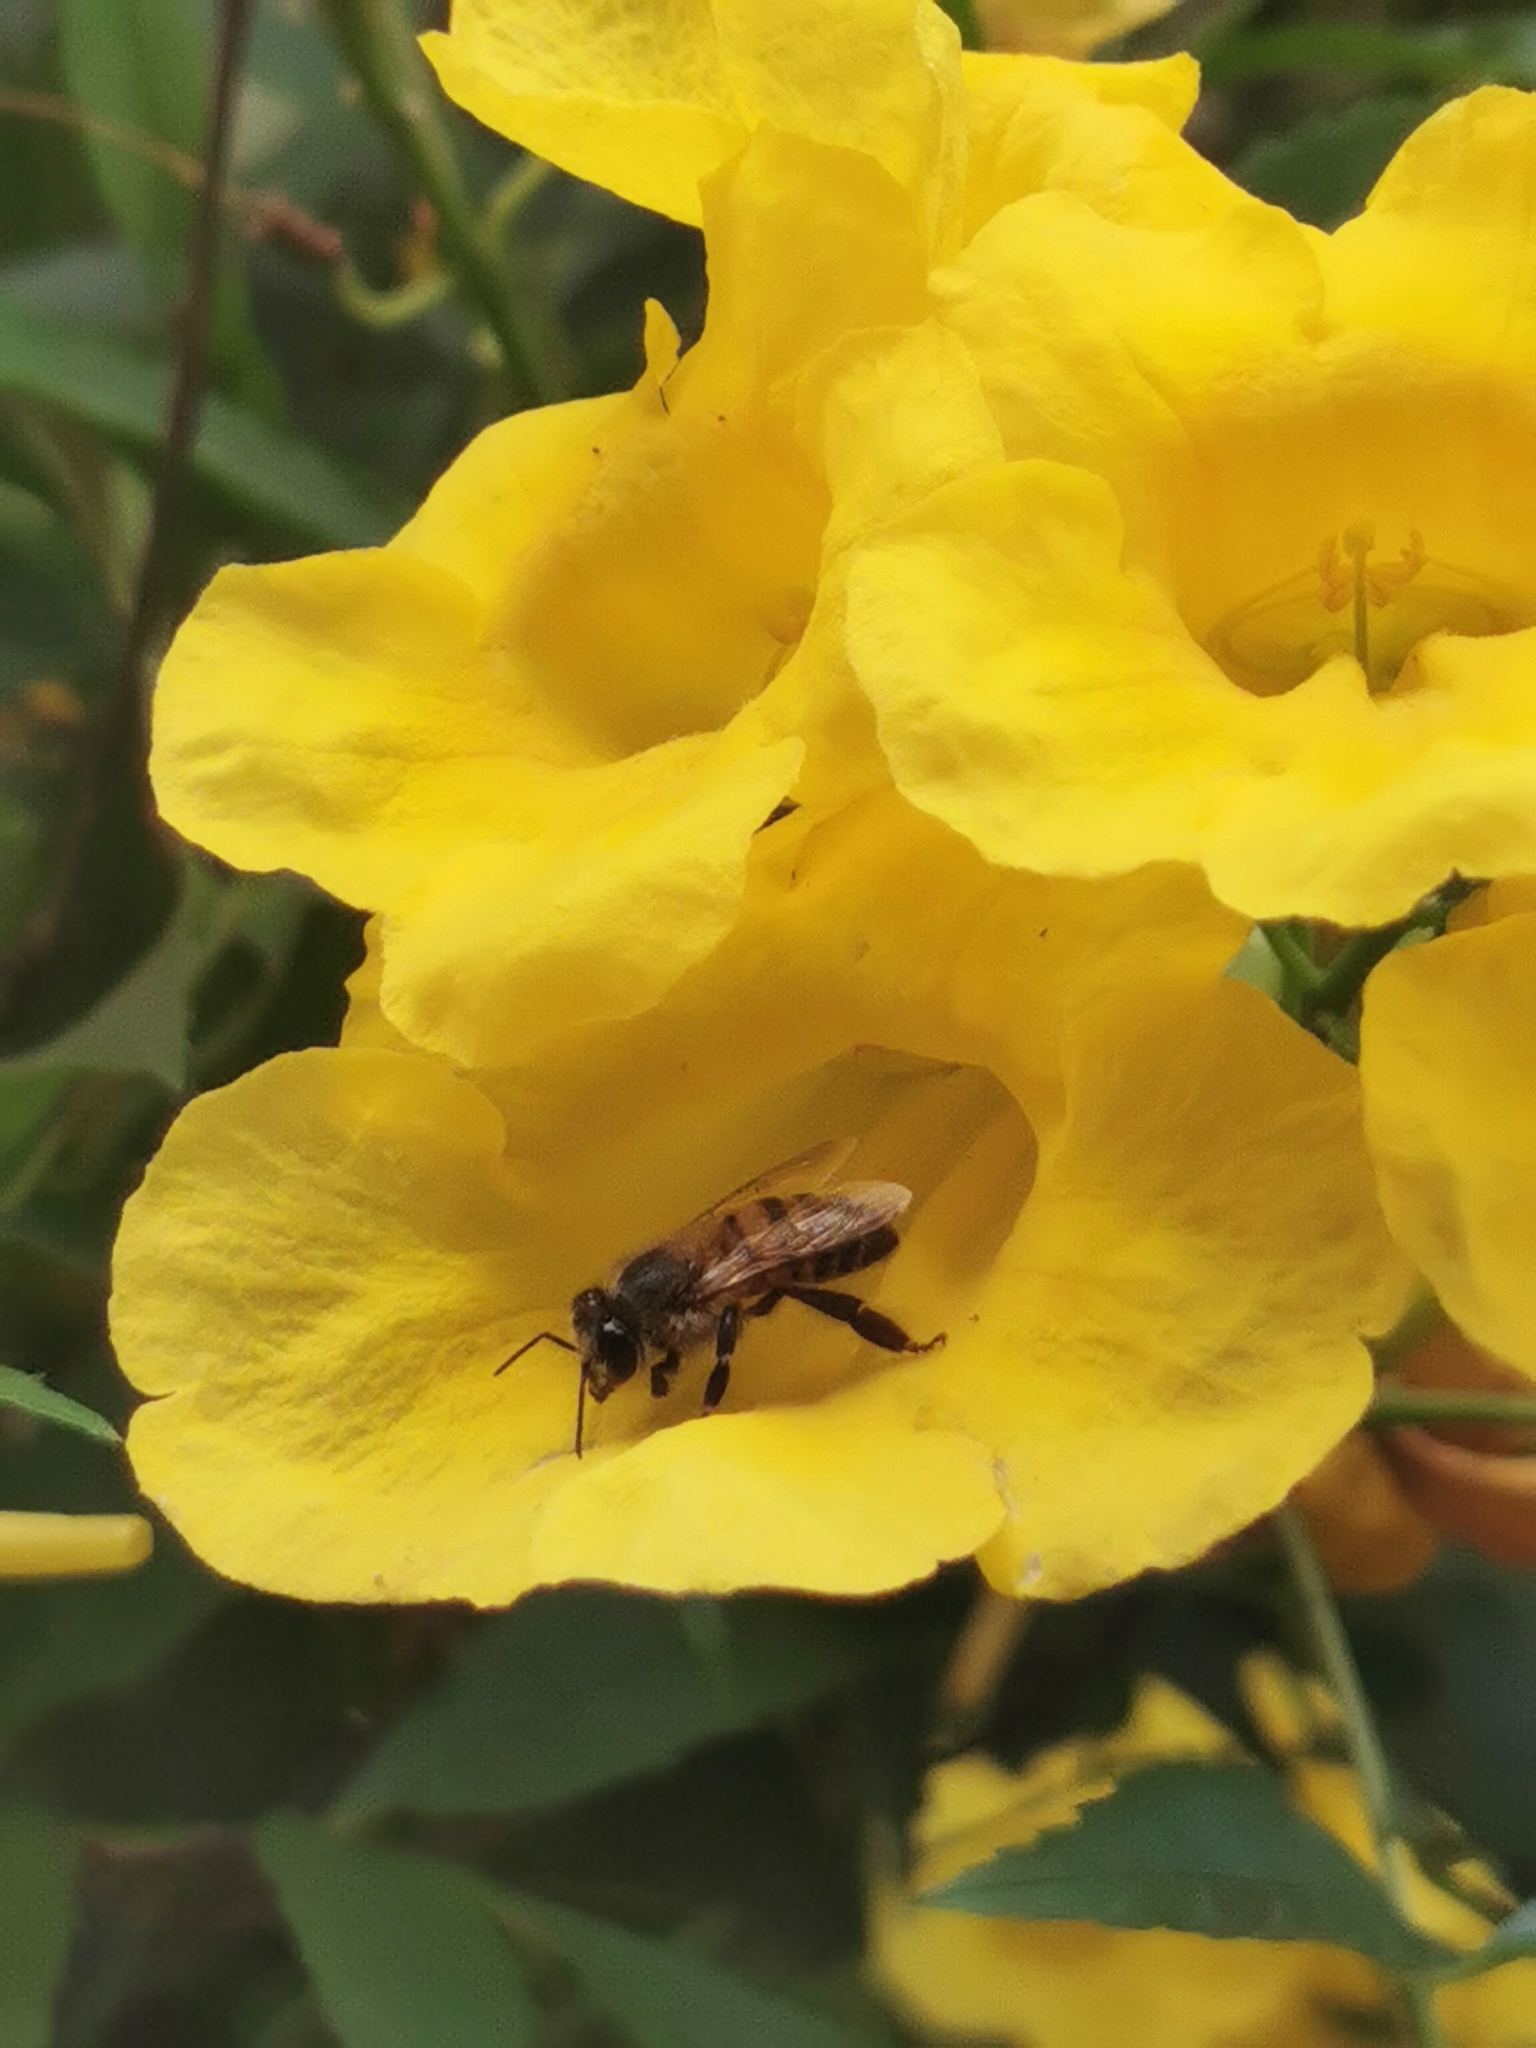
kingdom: Animalia
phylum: Arthropoda
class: Insecta
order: Hymenoptera
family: Apidae
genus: Apis
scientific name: Apis mellifera
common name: Honey bee
